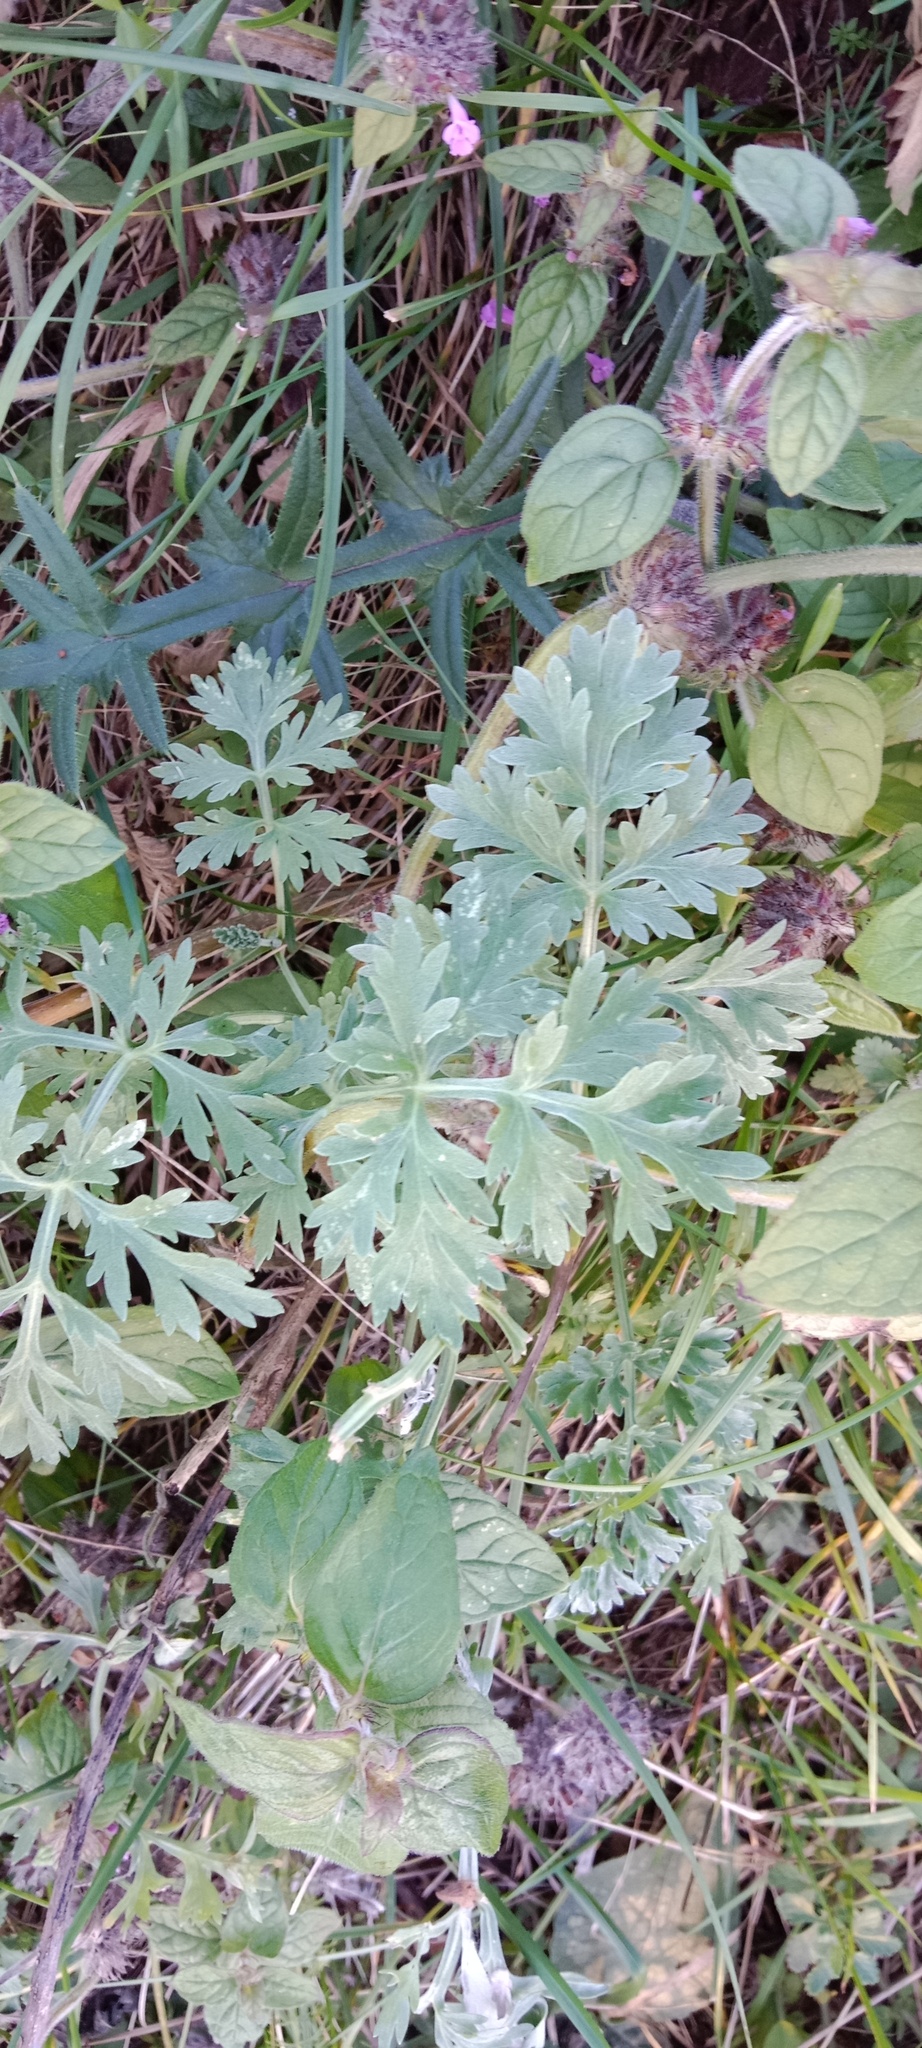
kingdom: Plantae
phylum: Tracheophyta
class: Magnoliopsida
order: Asterales
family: Asteraceae
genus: Artemisia
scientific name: Artemisia absinthium
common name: Wormwood
